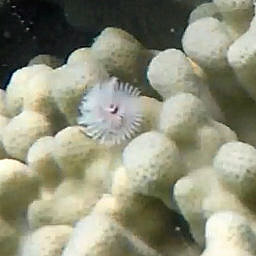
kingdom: Animalia
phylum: Annelida
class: Polychaeta
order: Sabellida
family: Serpulidae
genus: Spirobranchus
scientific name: Spirobranchus
